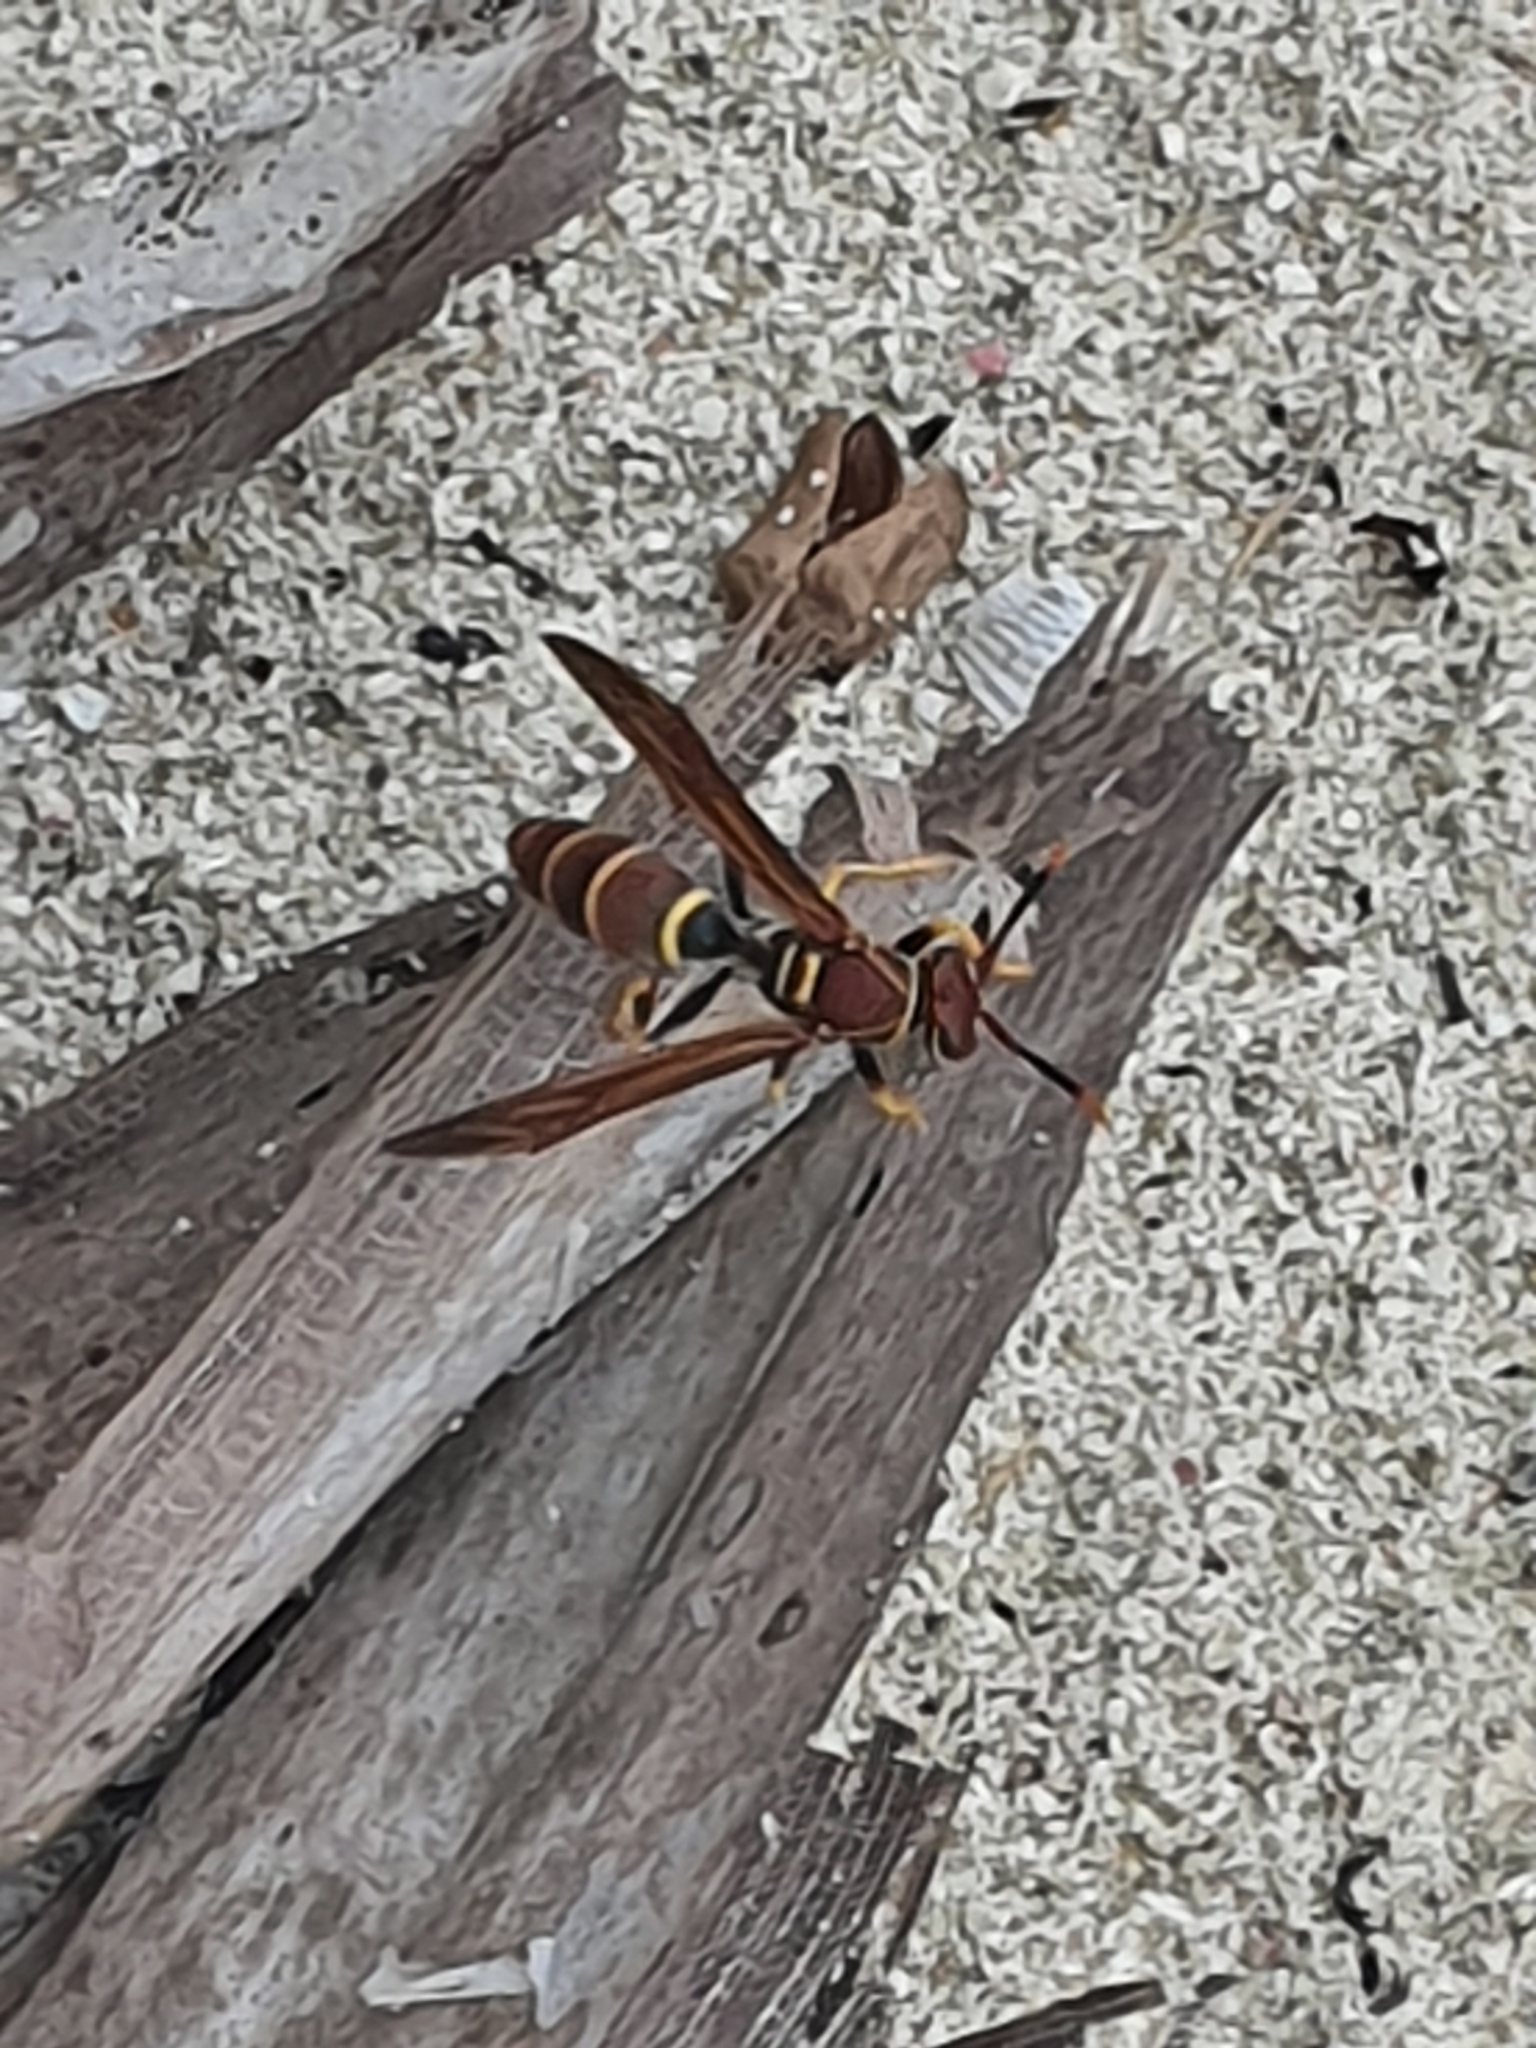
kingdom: Animalia
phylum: Arthropoda
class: Insecta
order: Hymenoptera
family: Eumenidae
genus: Polistes
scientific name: Polistes crinitus
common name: Jack spaniard
